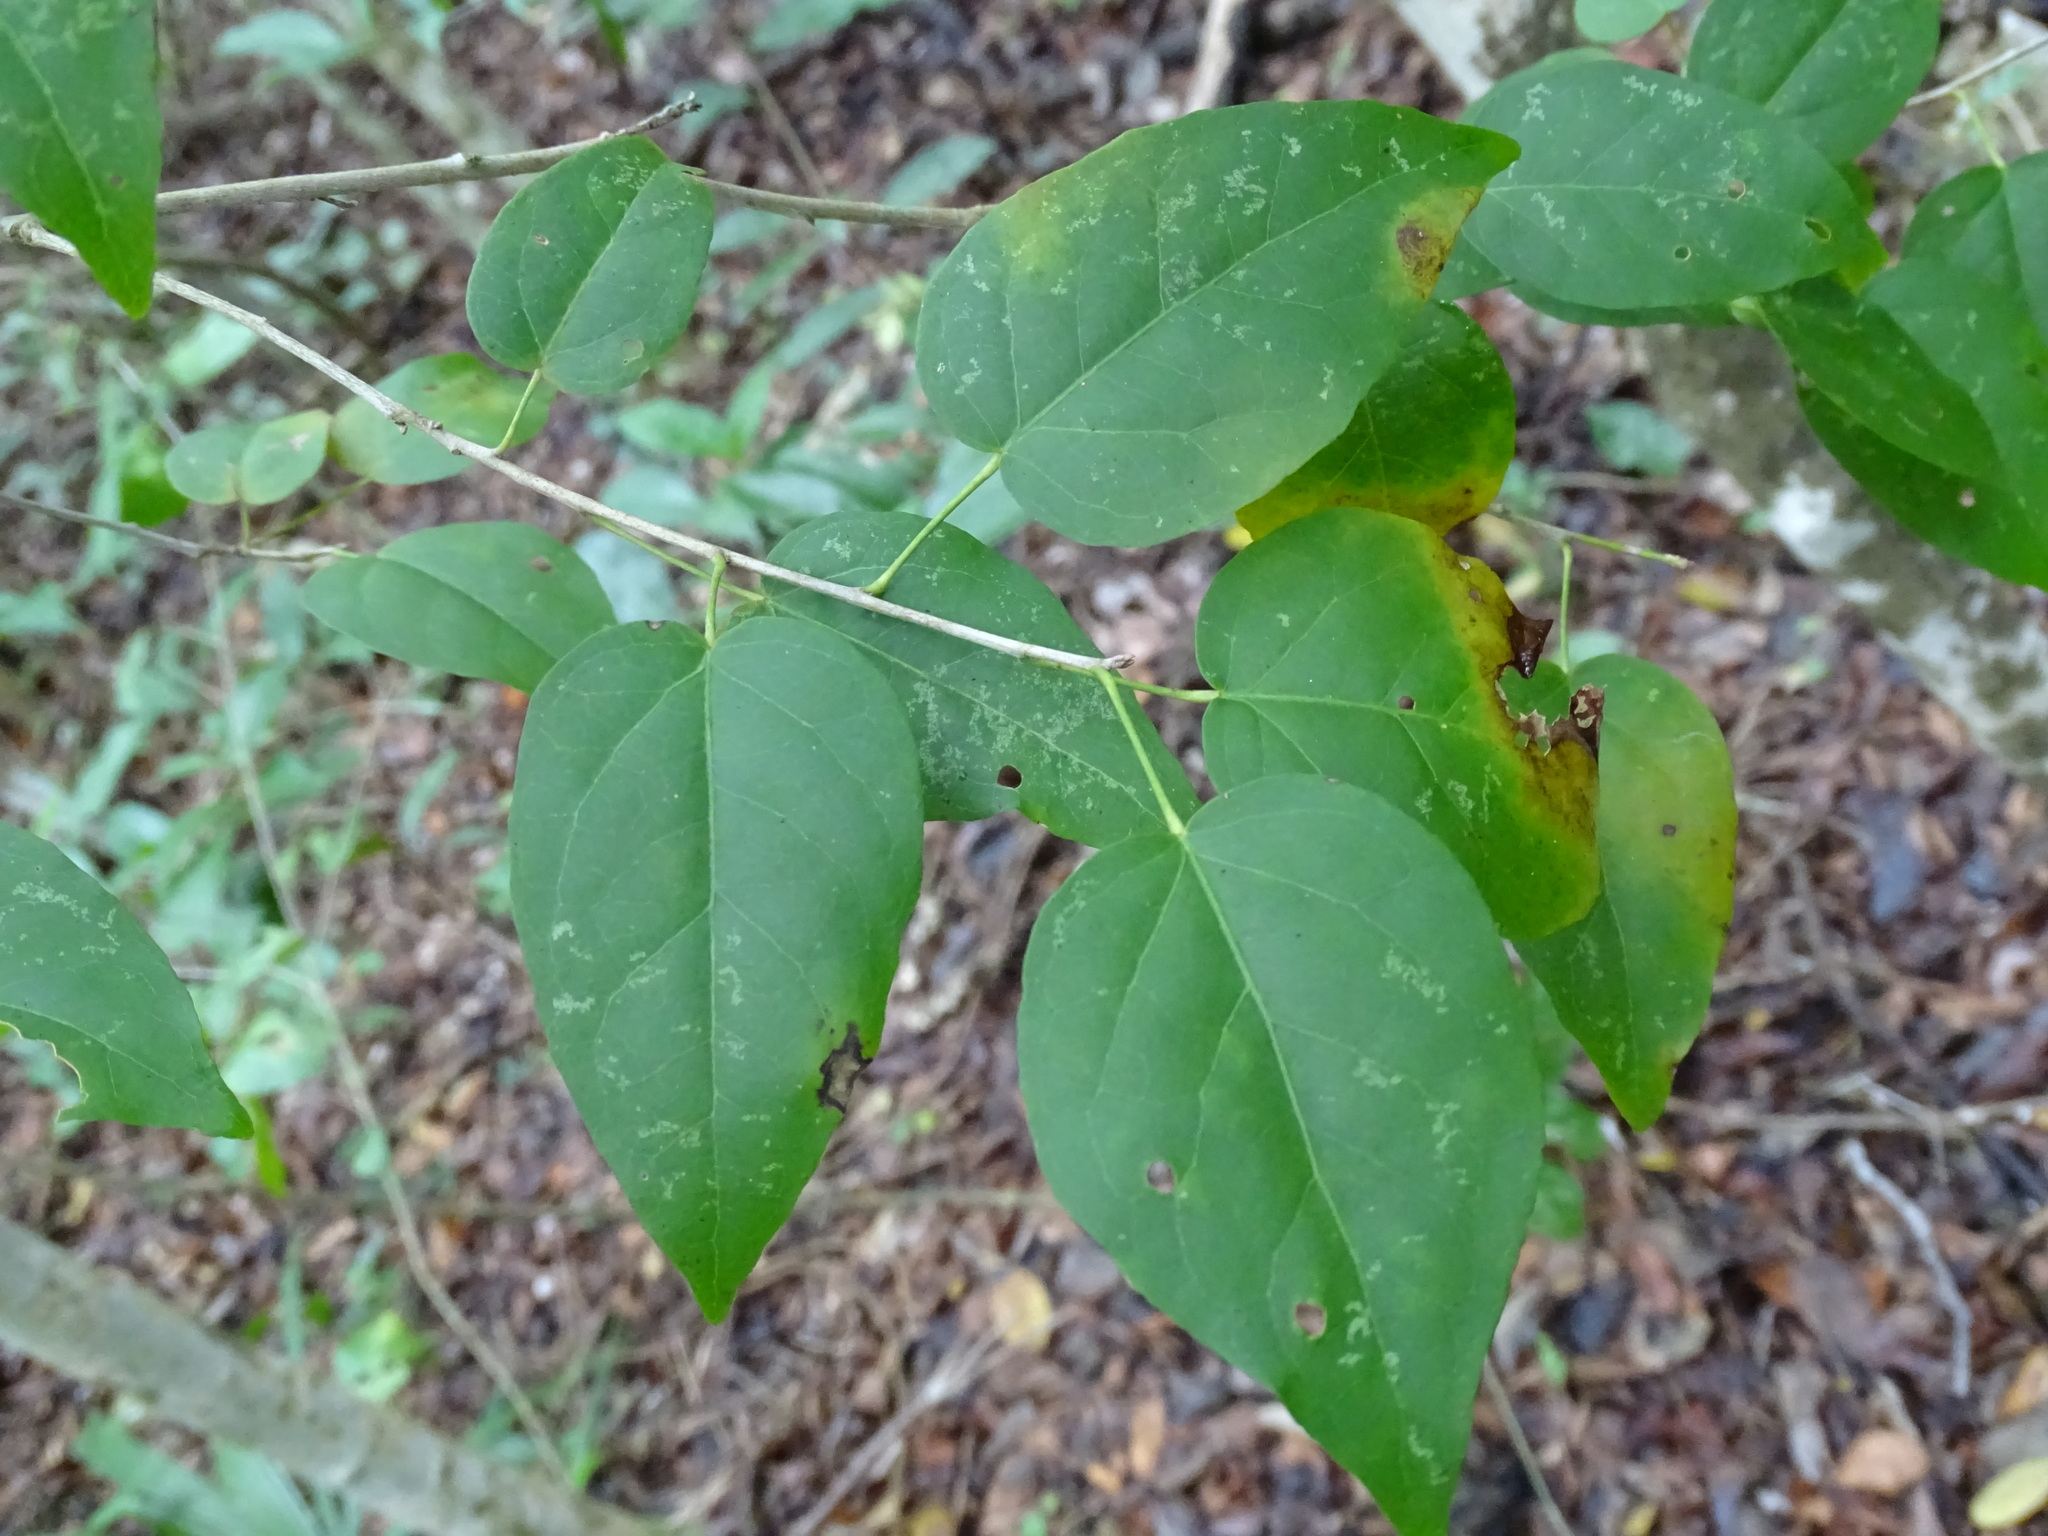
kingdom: Plantae
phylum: Tracheophyta
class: Magnoliopsida
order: Malpighiales
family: Euphorbiaceae
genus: Croton
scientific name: Croton mayanus
